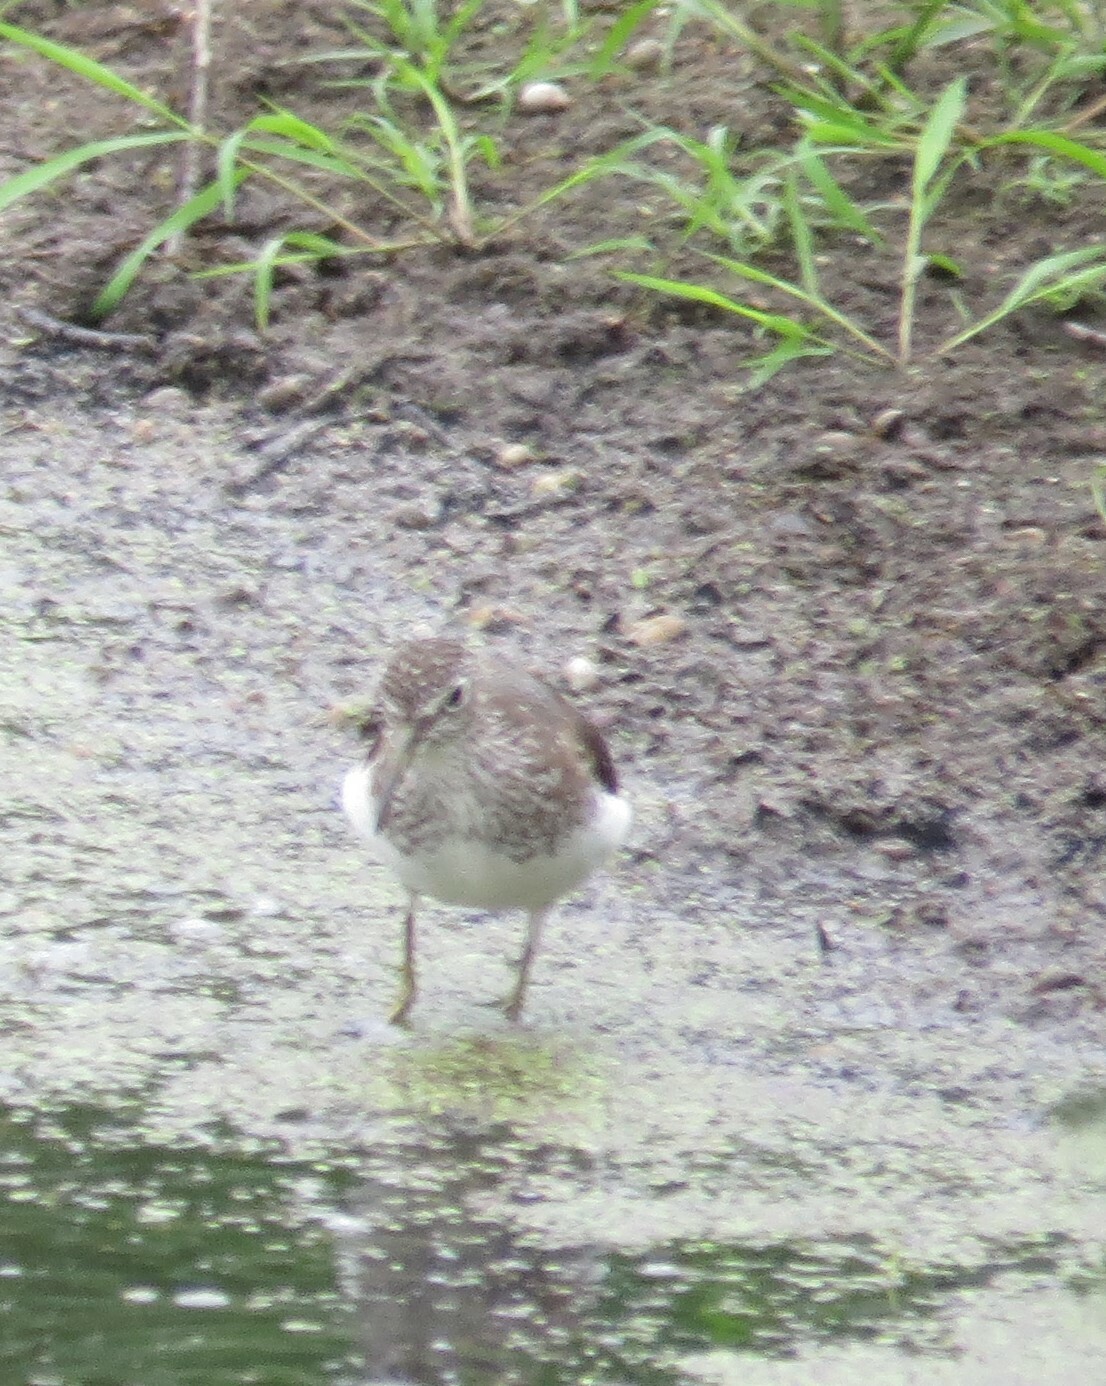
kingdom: Animalia
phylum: Chordata
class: Aves
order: Charadriiformes
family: Scolopacidae
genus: Tringa
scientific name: Tringa solitaria
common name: Solitary sandpiper
